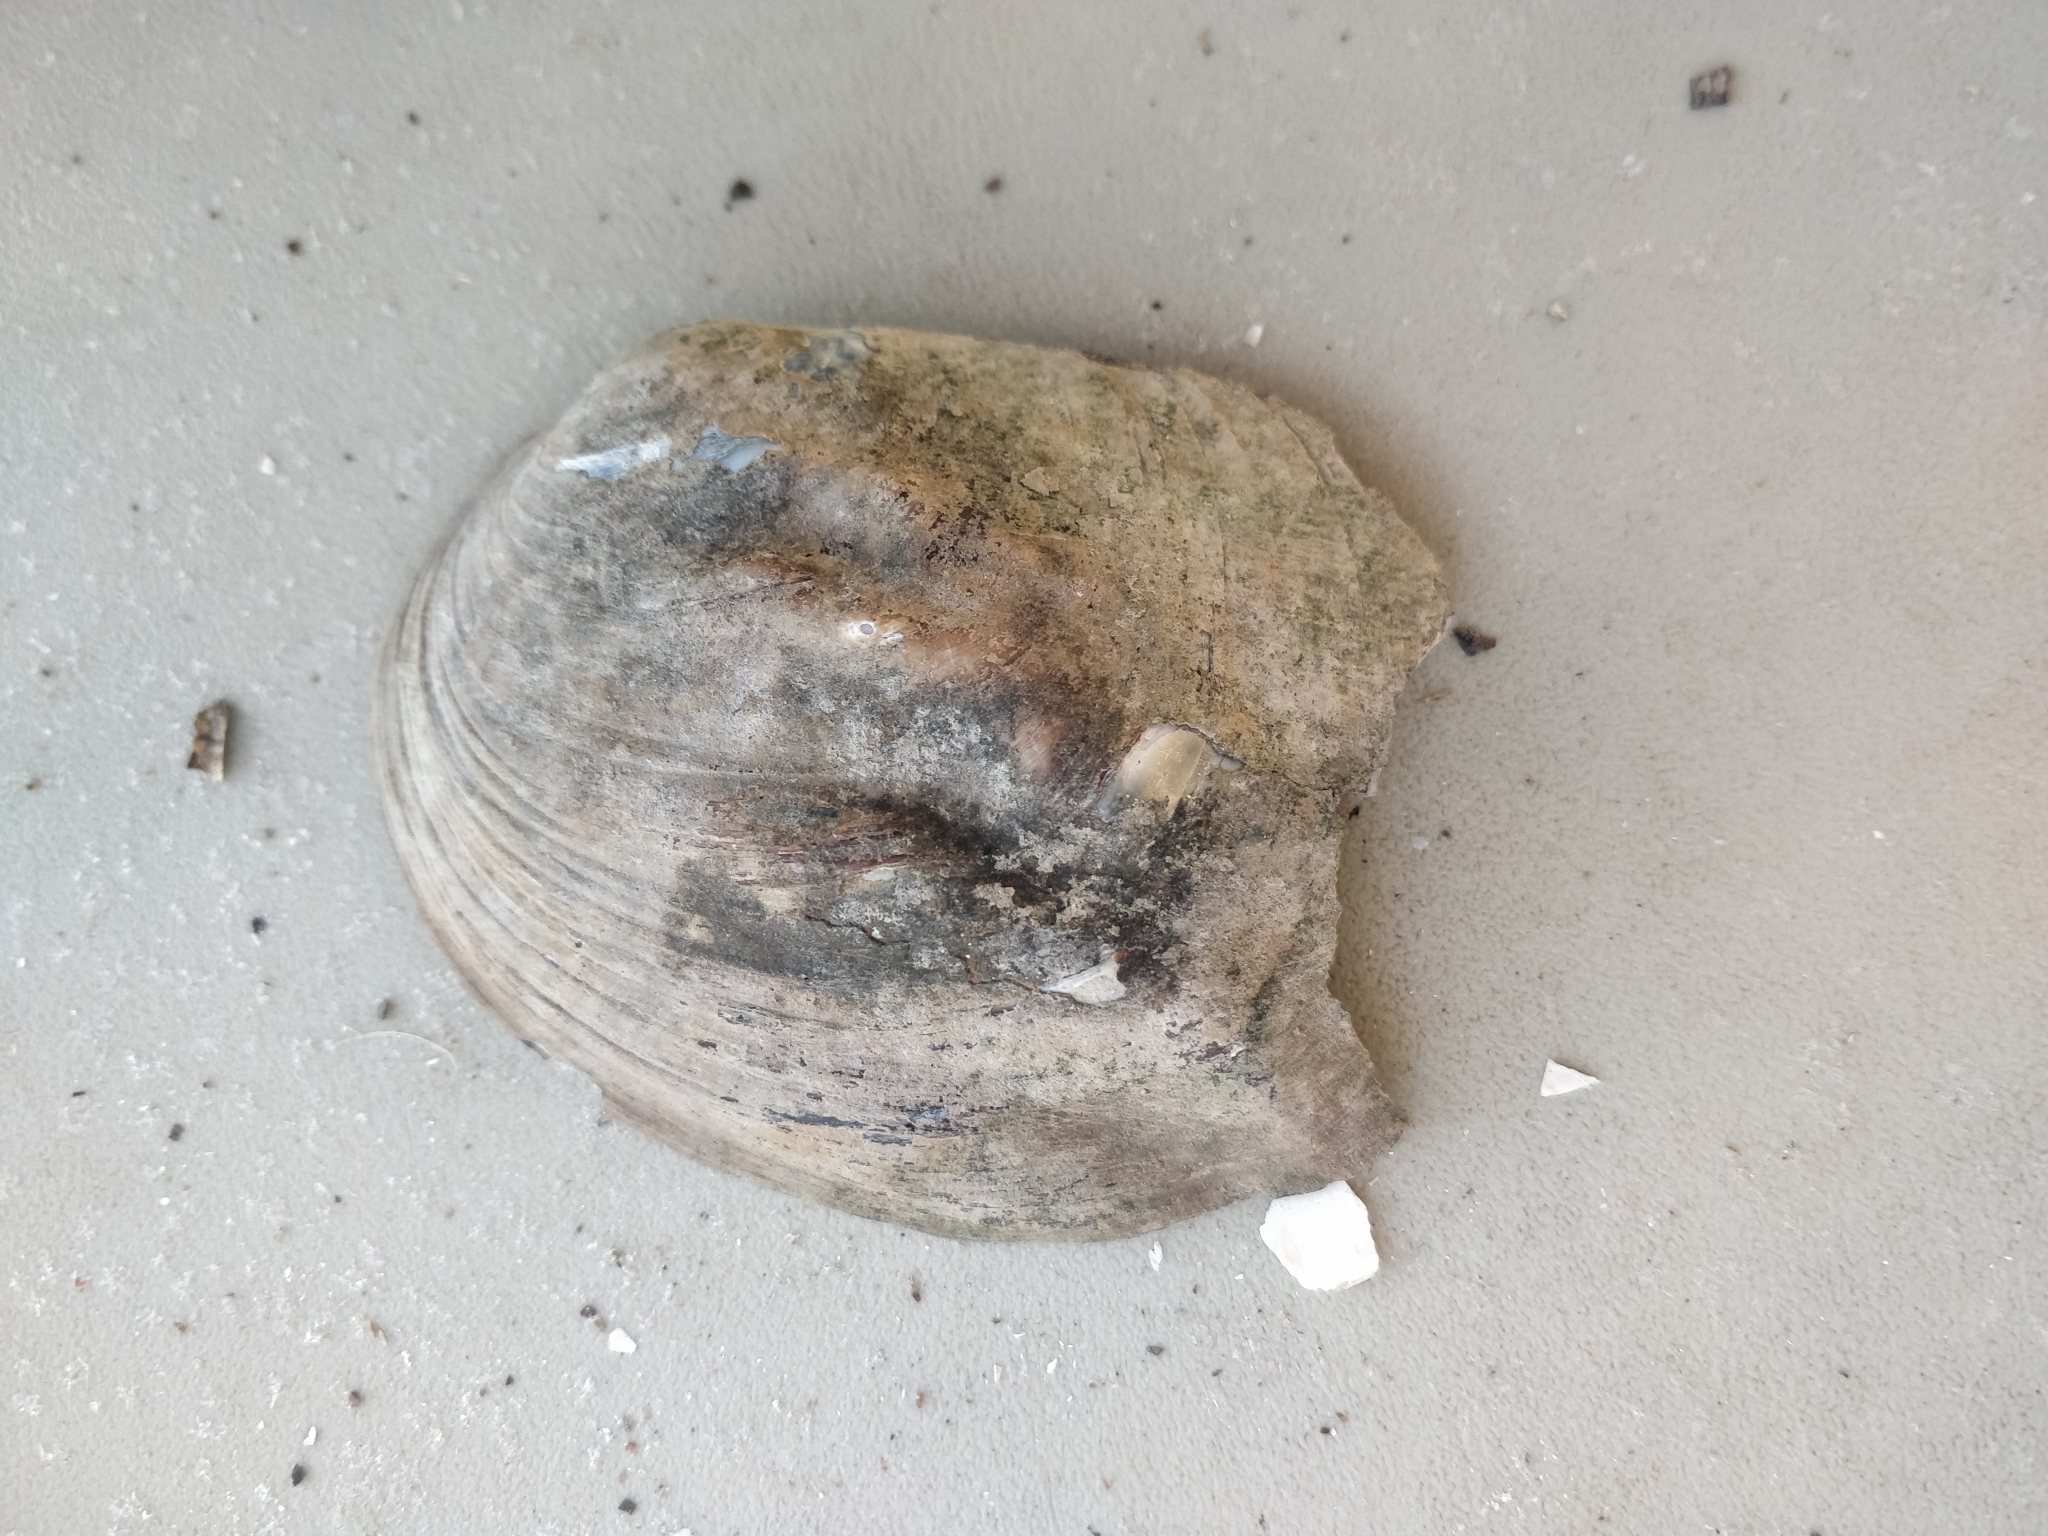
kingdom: Animalia
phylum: Mollusca
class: Bivalvia
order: Unionida
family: Unionidae
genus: Amblema
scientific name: Amblema plicata
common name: Threeridge
